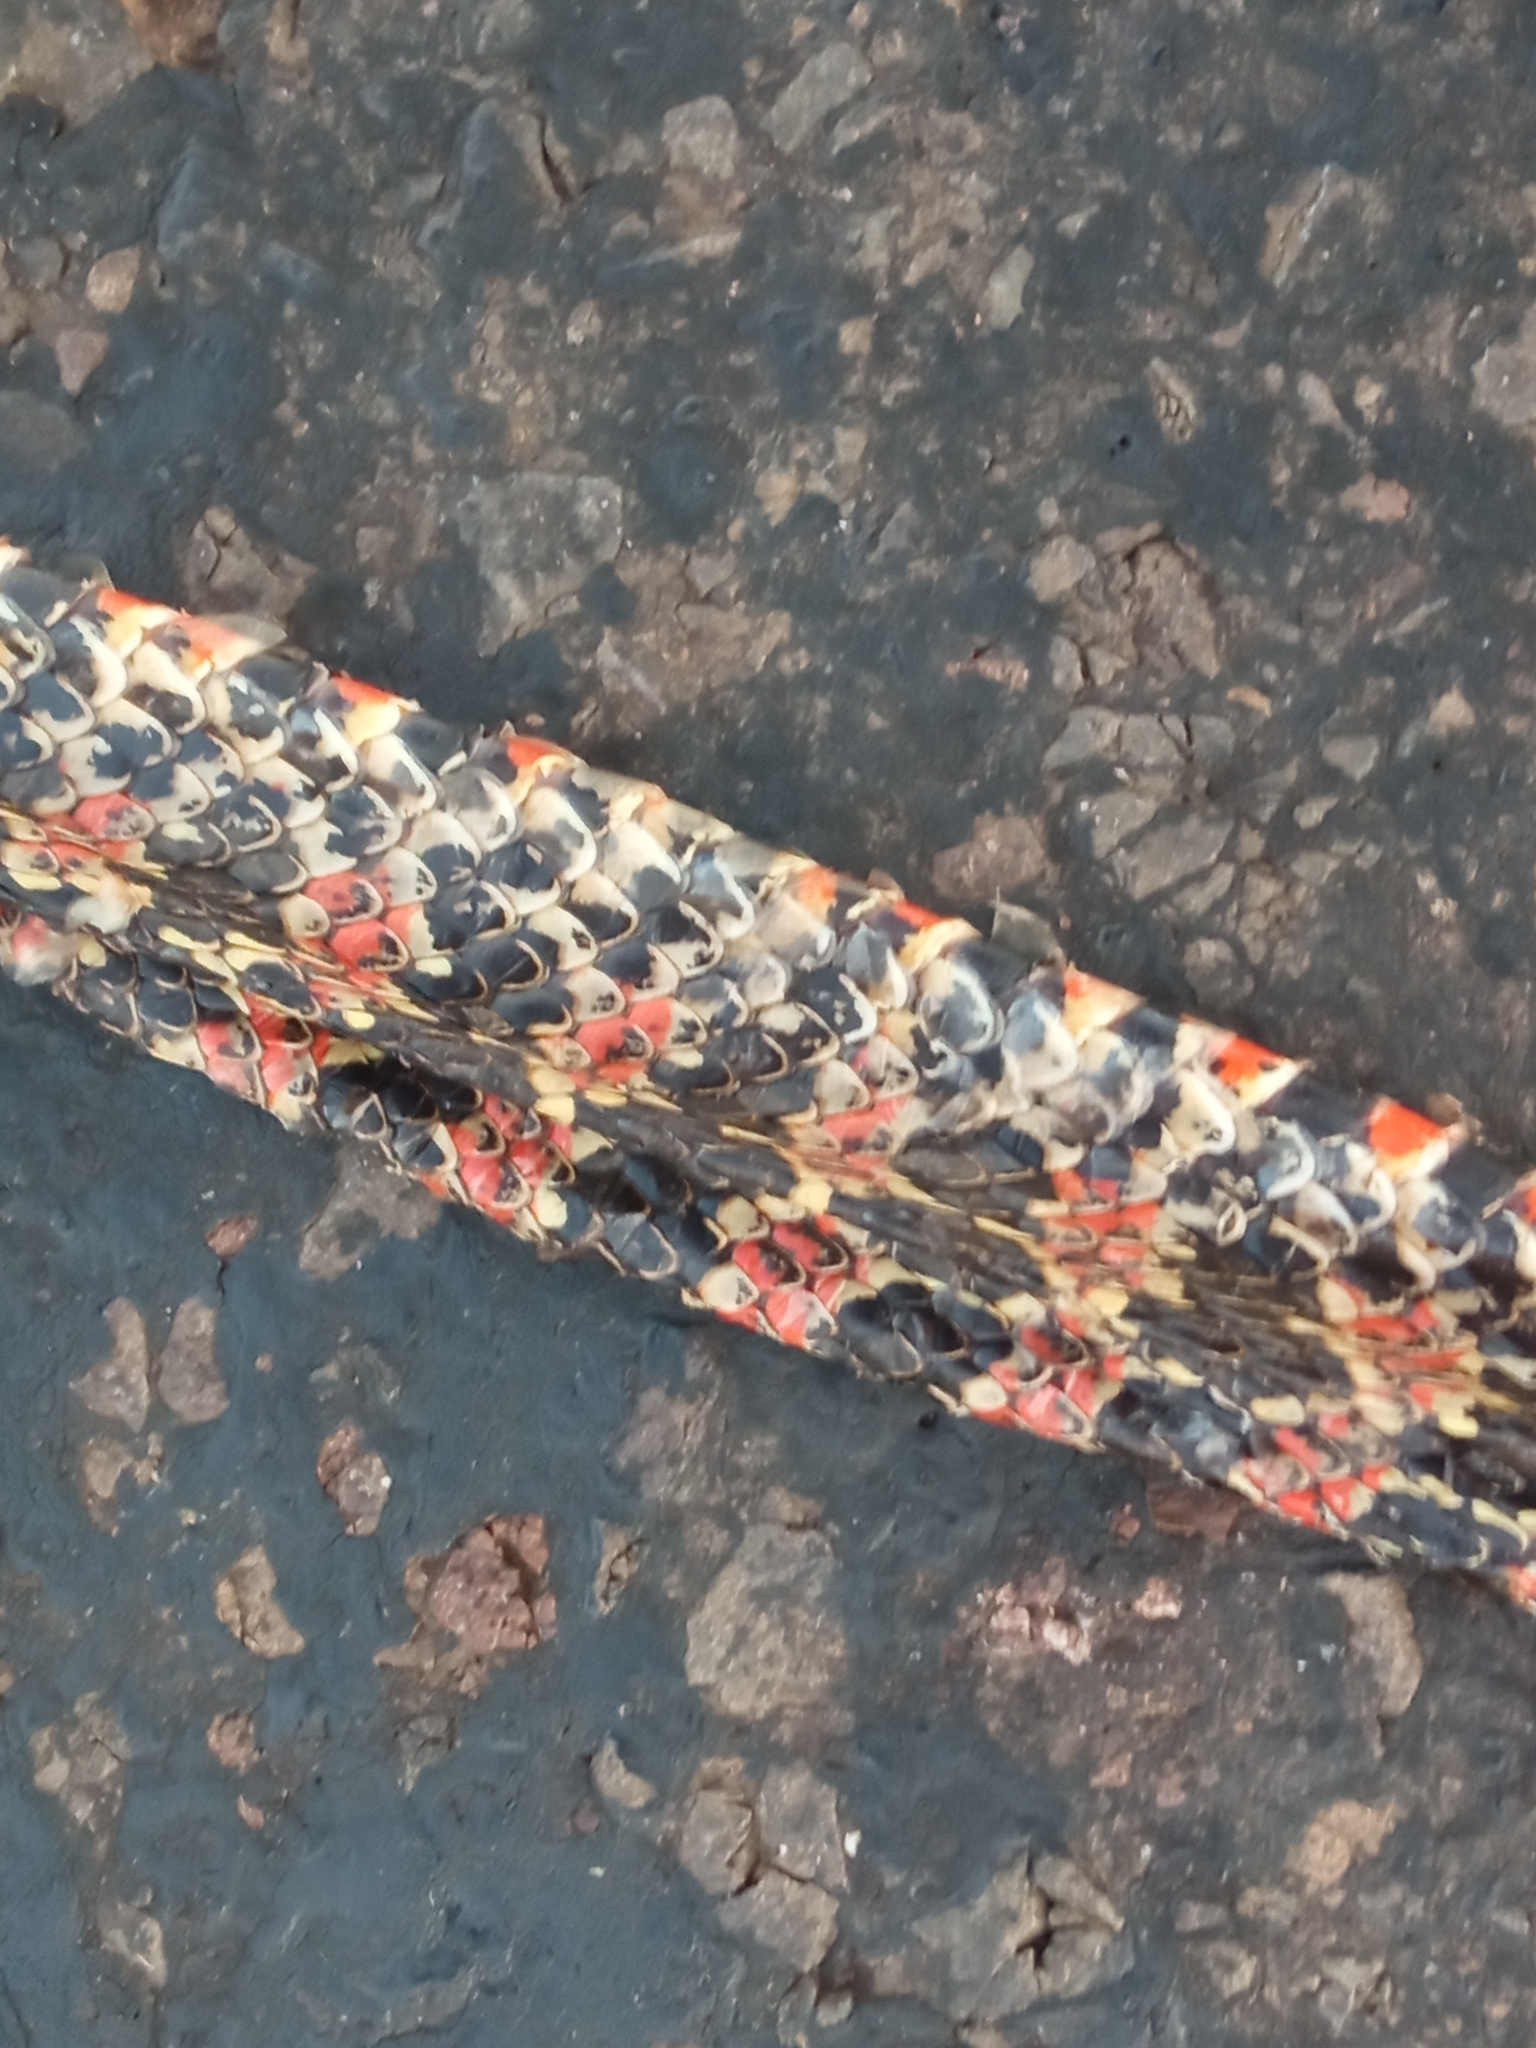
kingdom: Animalia
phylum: Chordata
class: Squamata
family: Colubridae
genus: Xenodon
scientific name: Xenodon dorbignyi
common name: South american hognose snake
